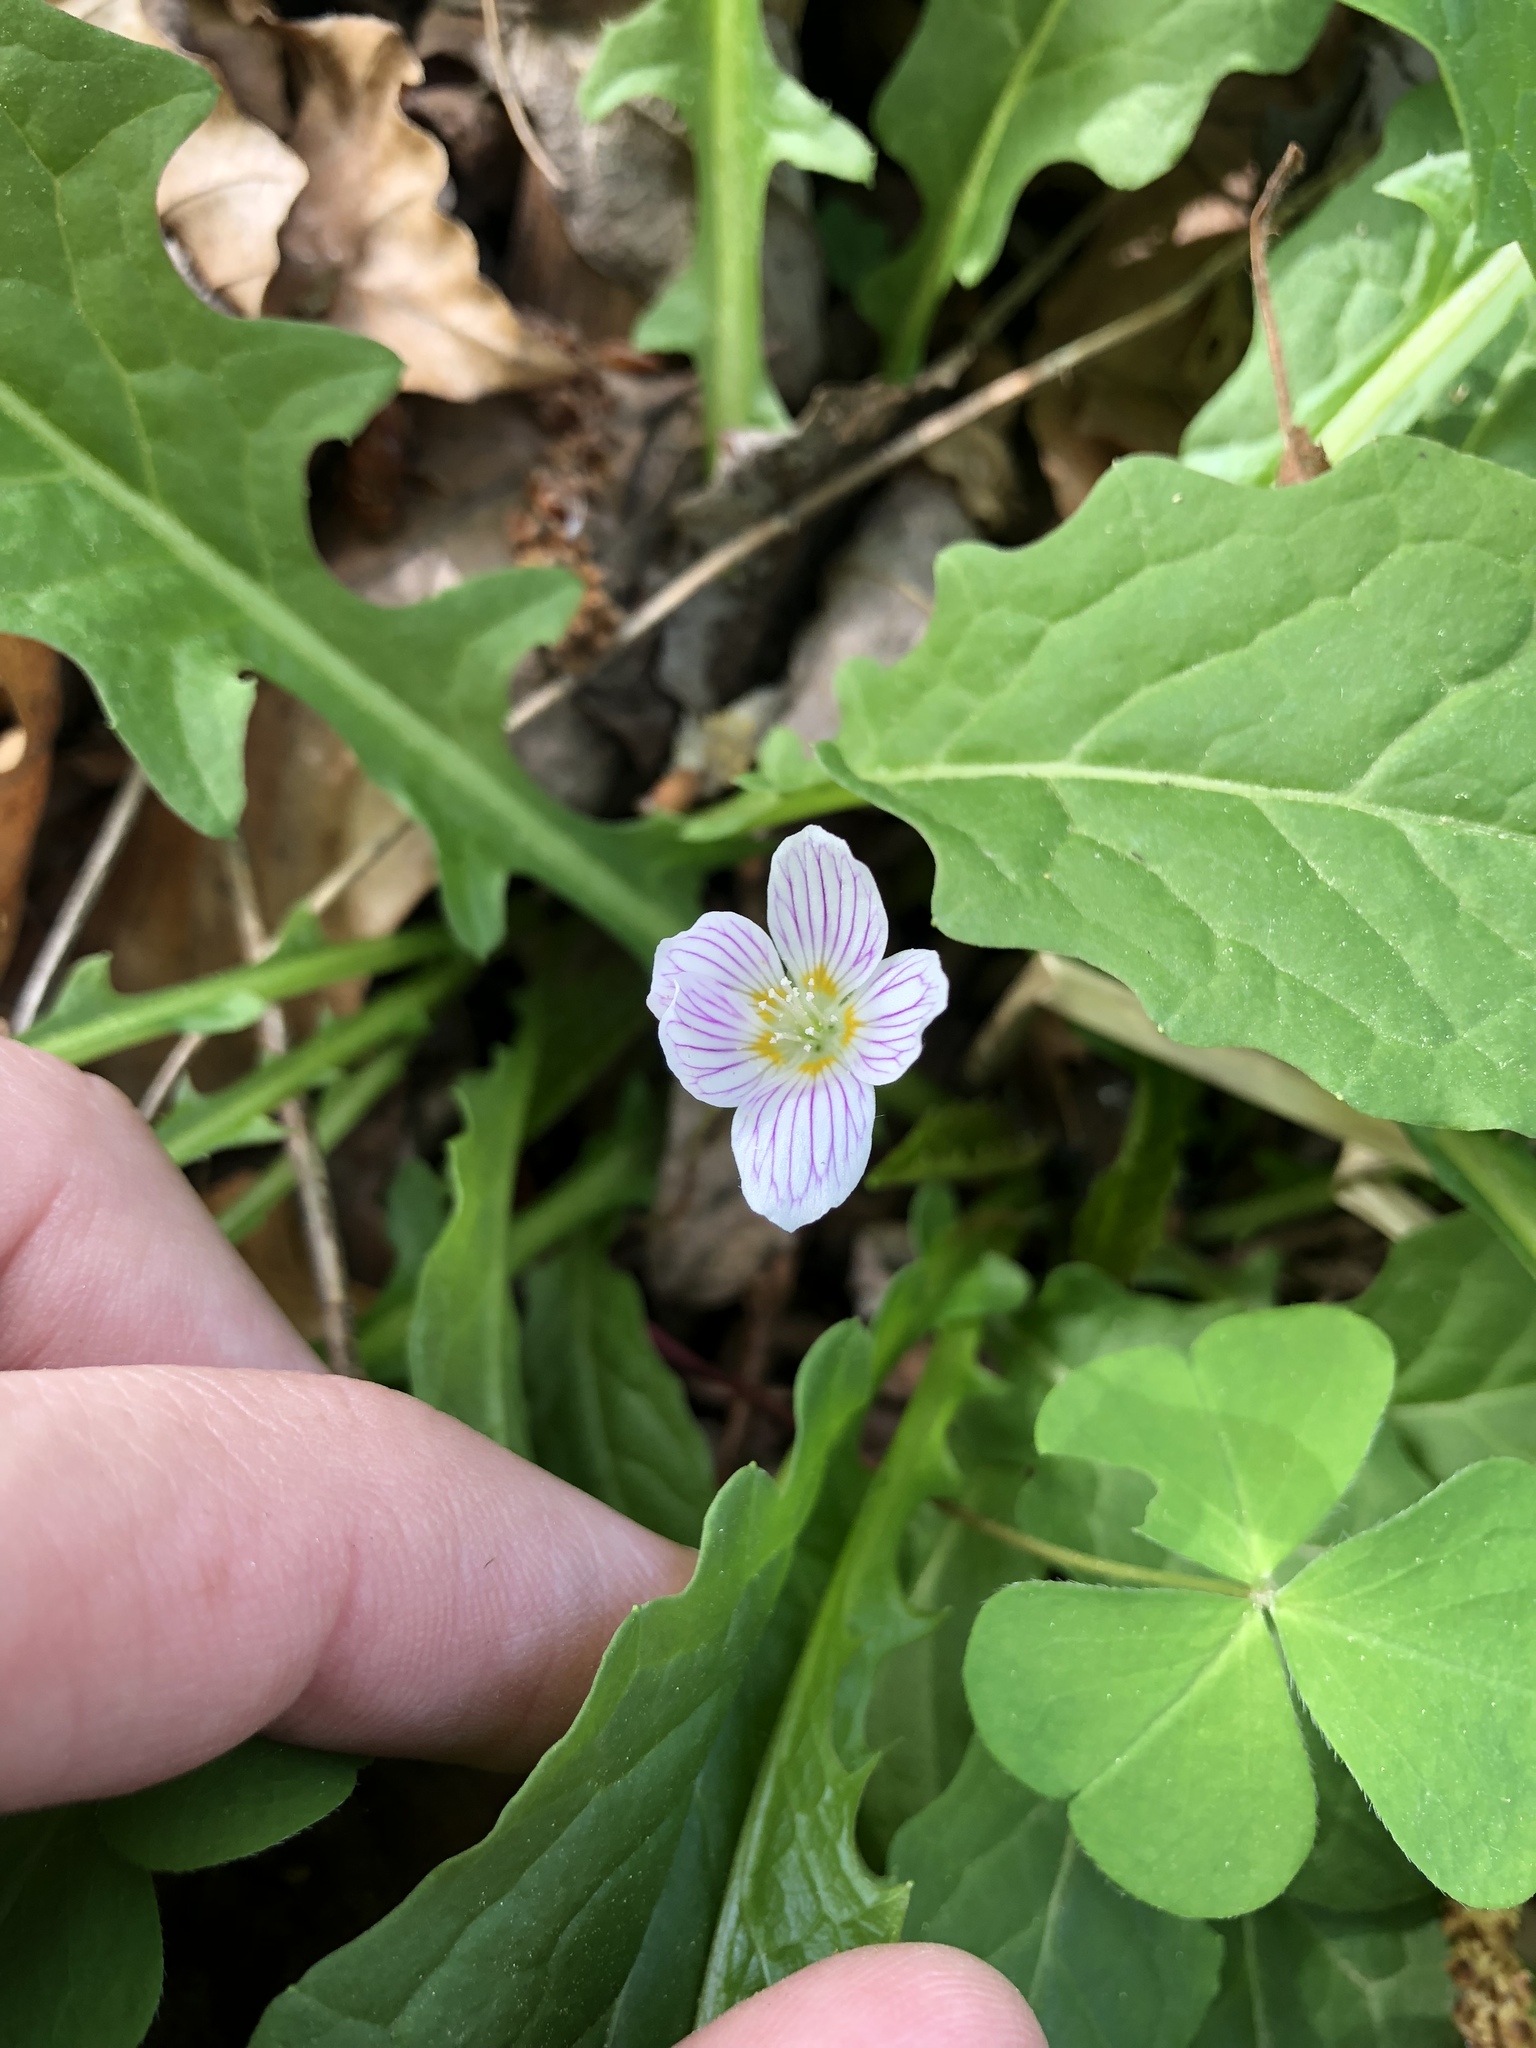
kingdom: Plantae
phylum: Tracheophyta
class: Magnoliopsida
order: Oxalidales
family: Oxalidaceae
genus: Oxalis
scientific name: Oxalis acetosella
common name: Wood-sorrel
